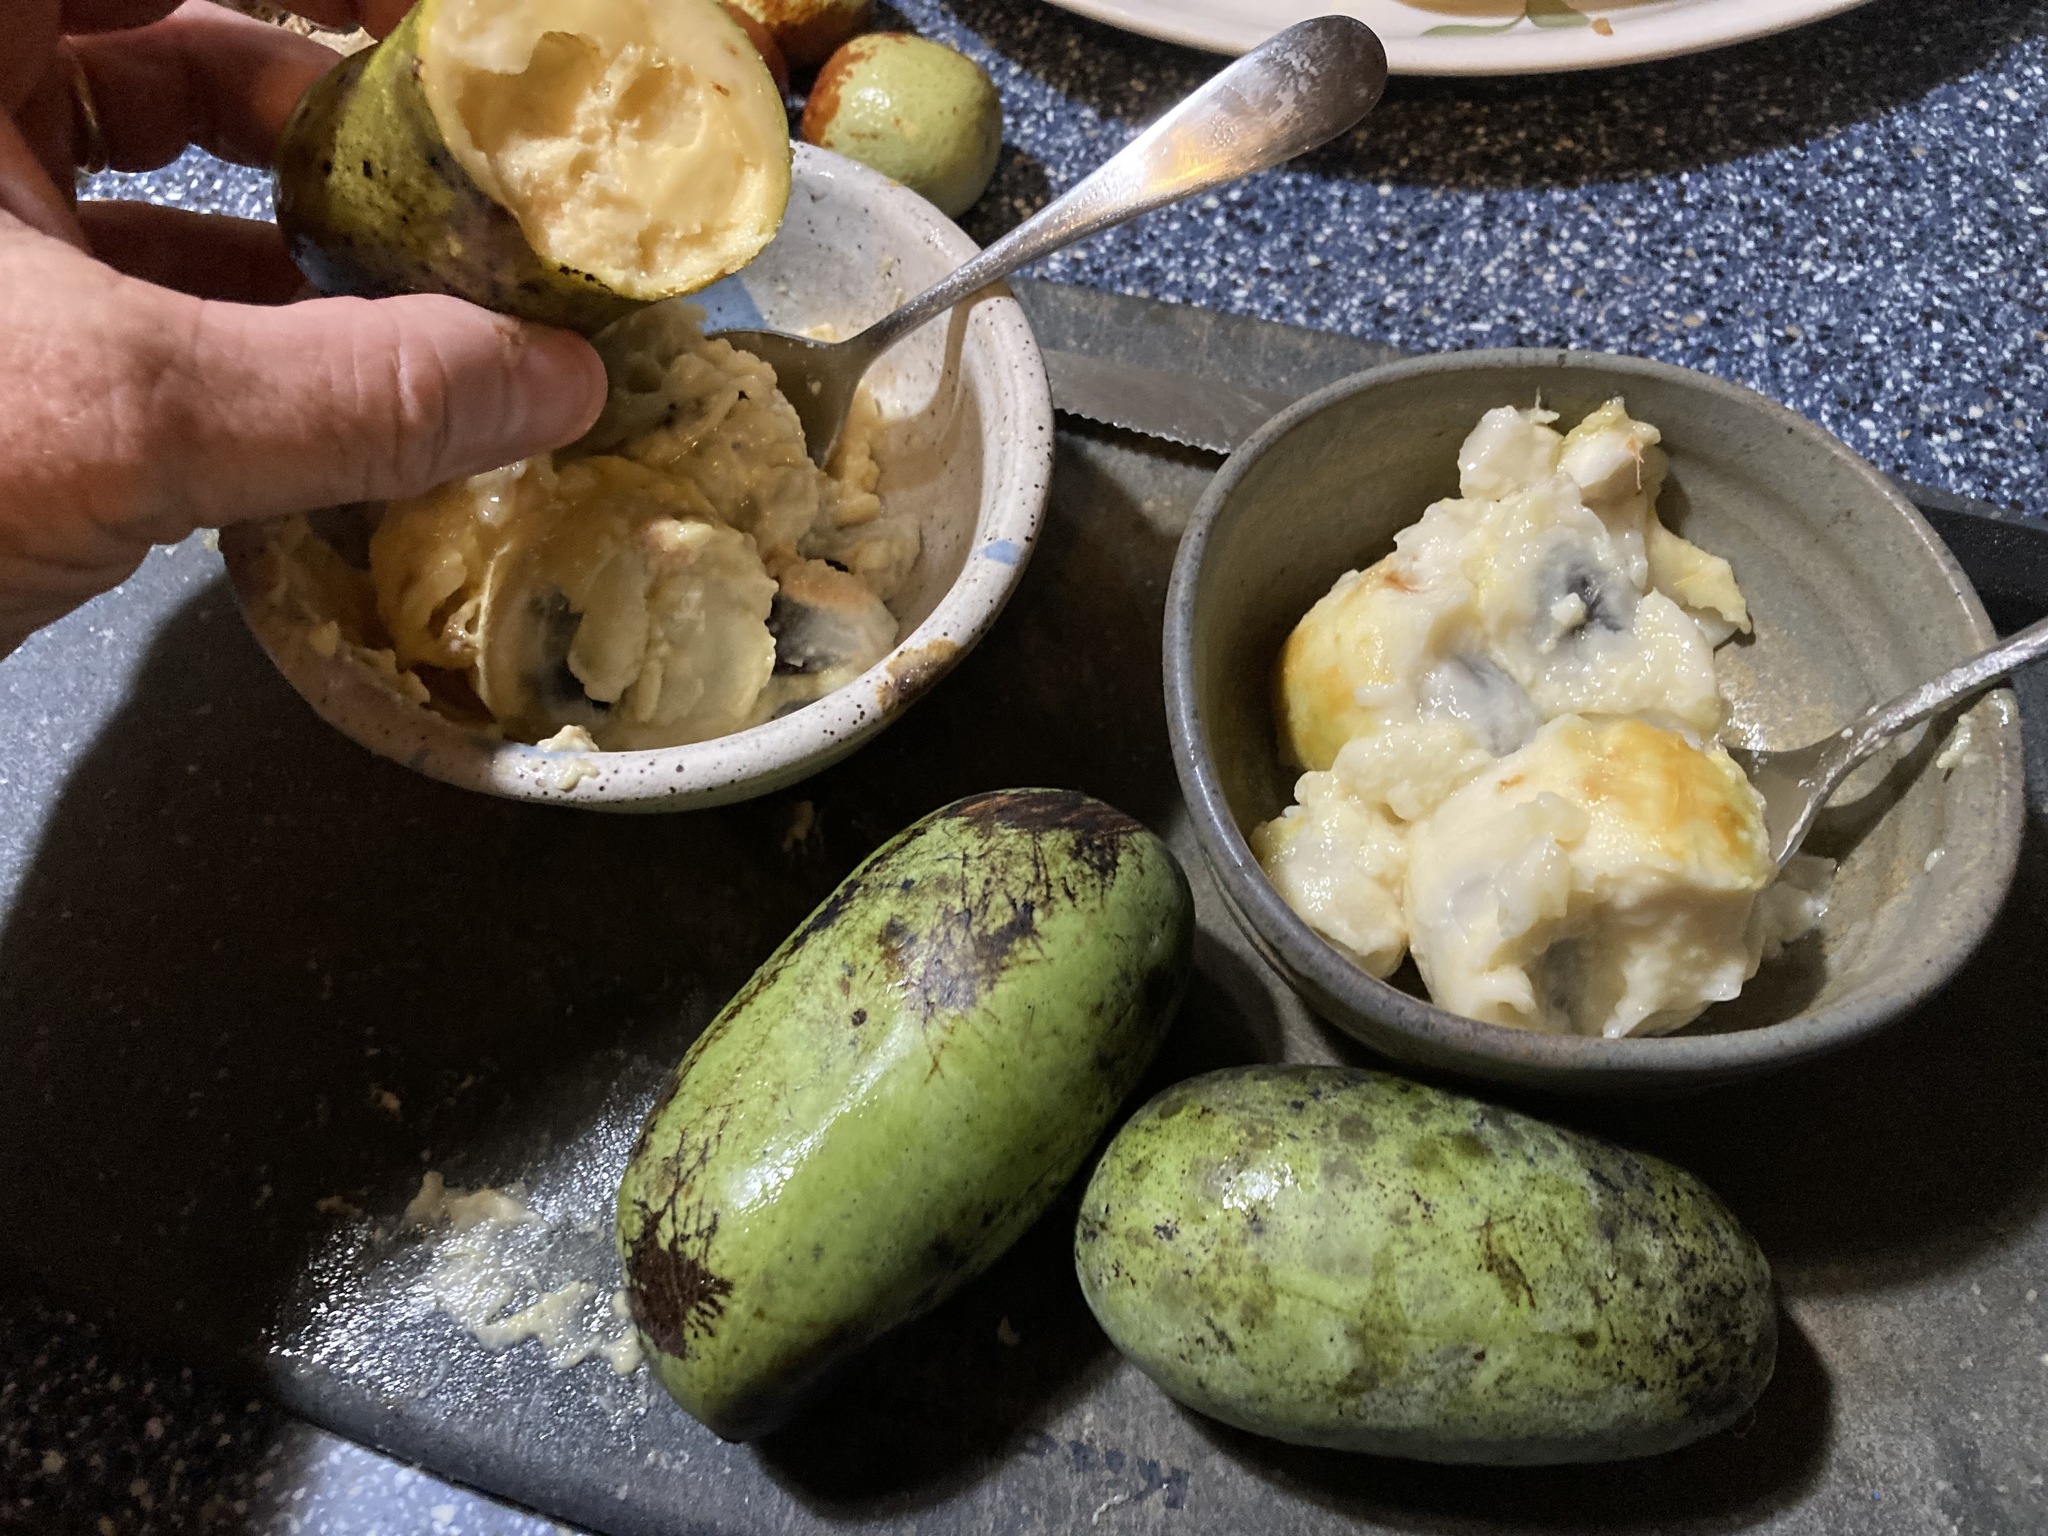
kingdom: Plantae
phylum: Tracheophyta
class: Magnoliopsida
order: Magnoliales
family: Annonaceae
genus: Asimina
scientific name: Asimina triloba
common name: Dog-banana
